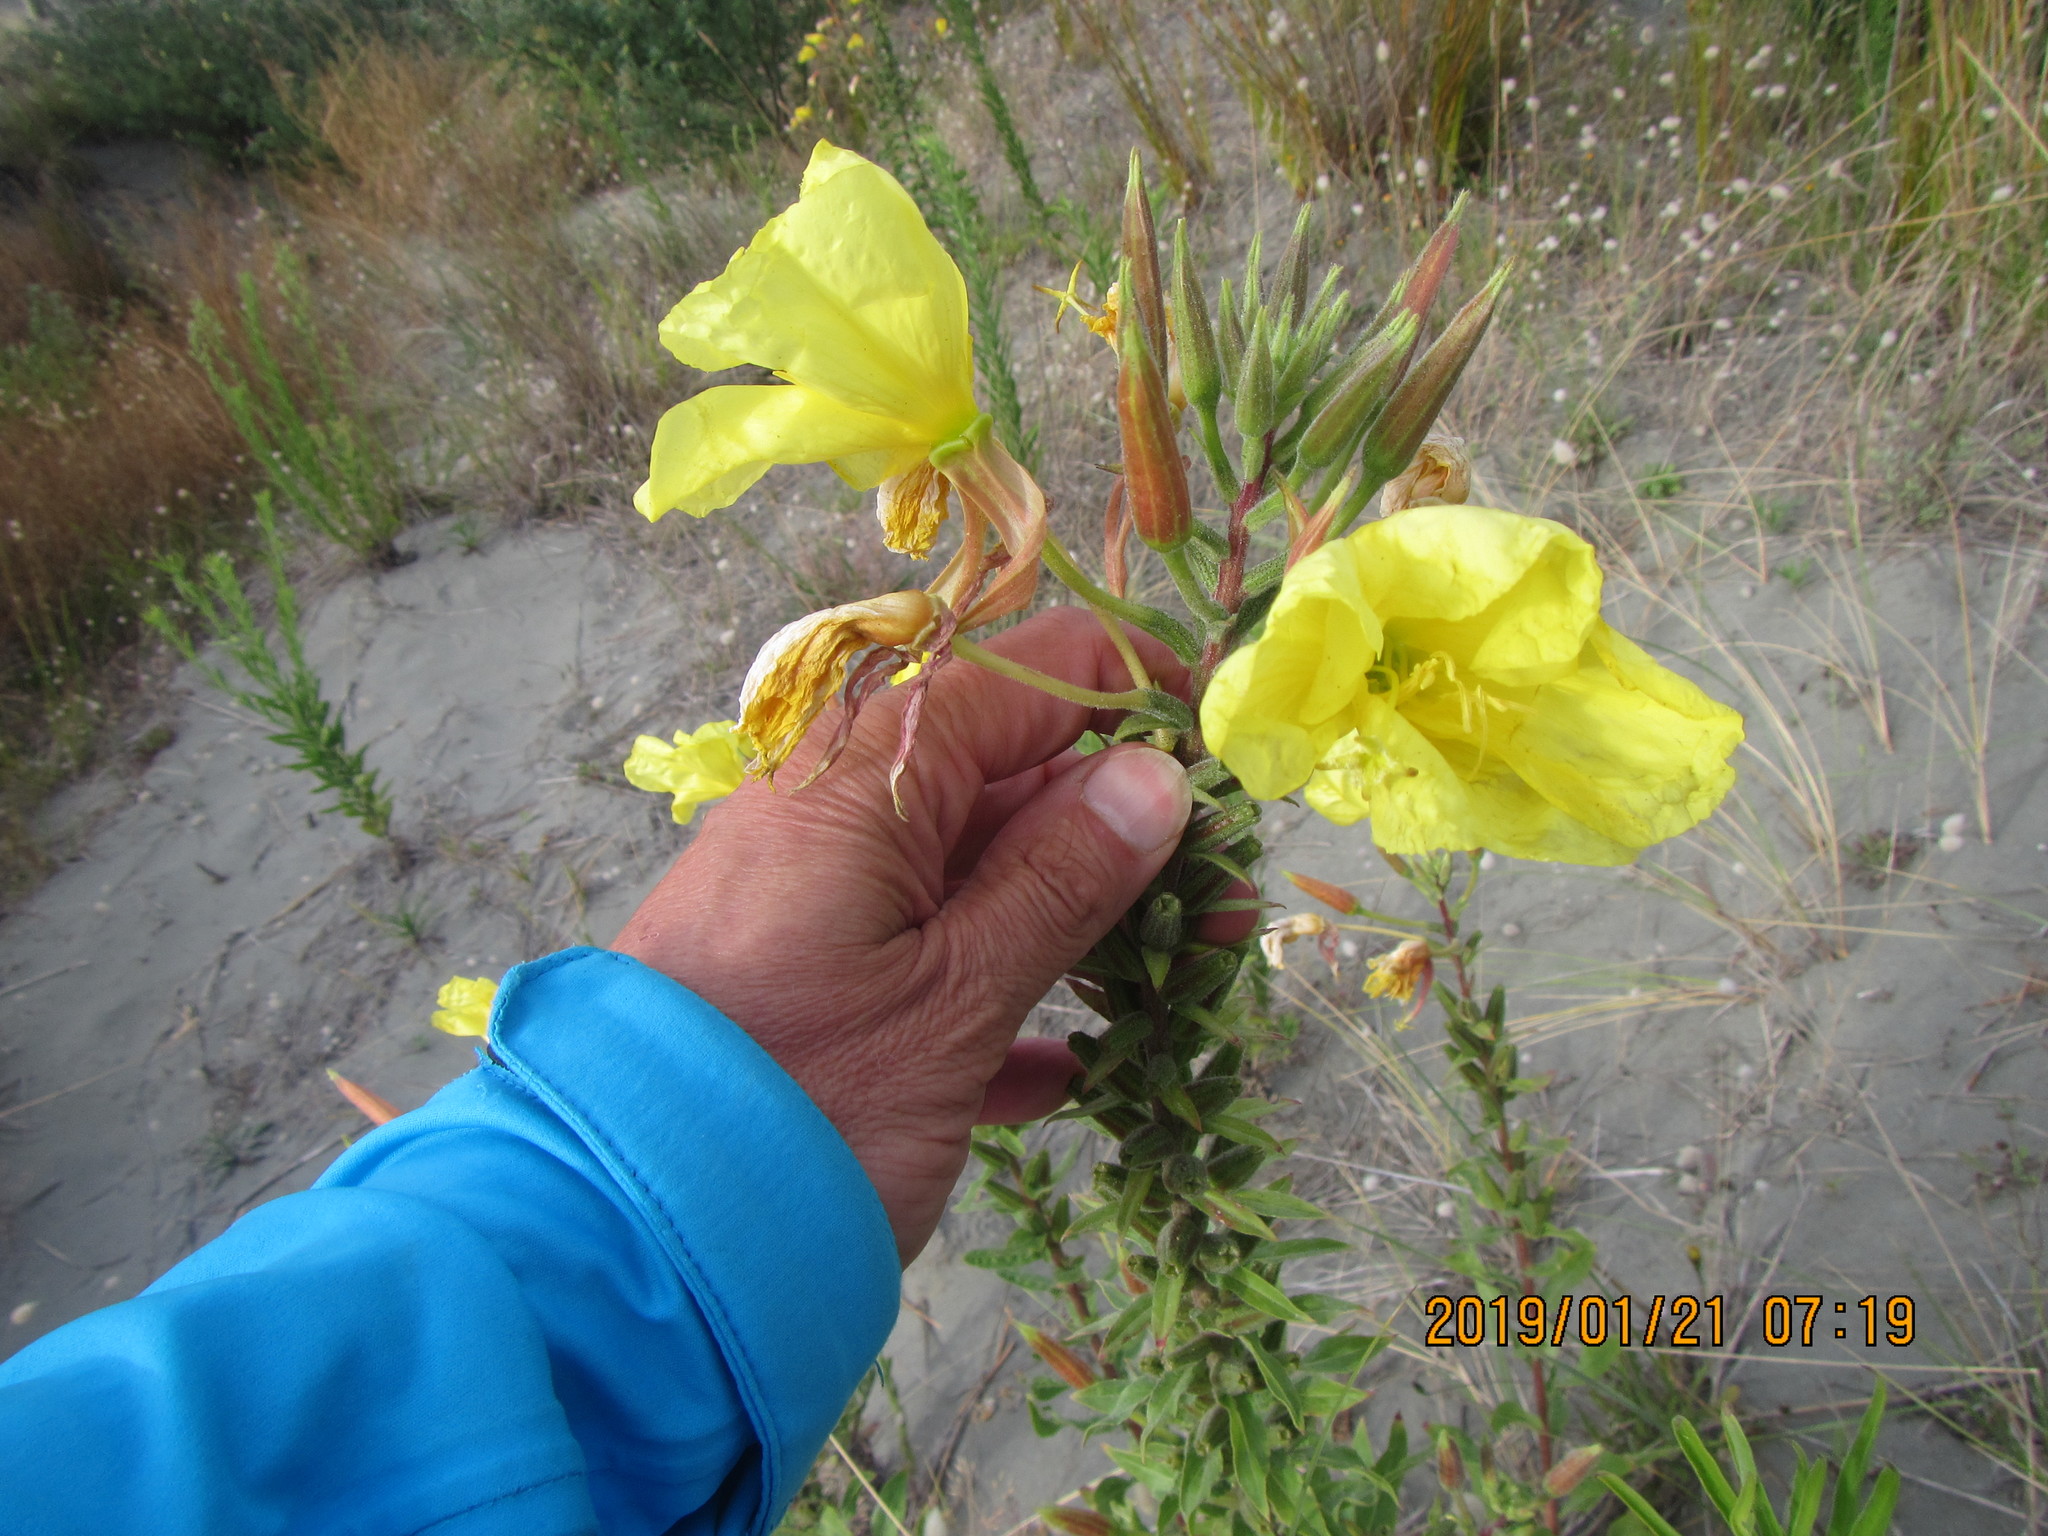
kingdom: Plantae
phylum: Tracheophyta
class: Magnoliopsida
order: Myrtales
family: Onagraceae
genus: Oenothera
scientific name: Oenothera glazioviana
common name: Large-flowered evening-primrose
